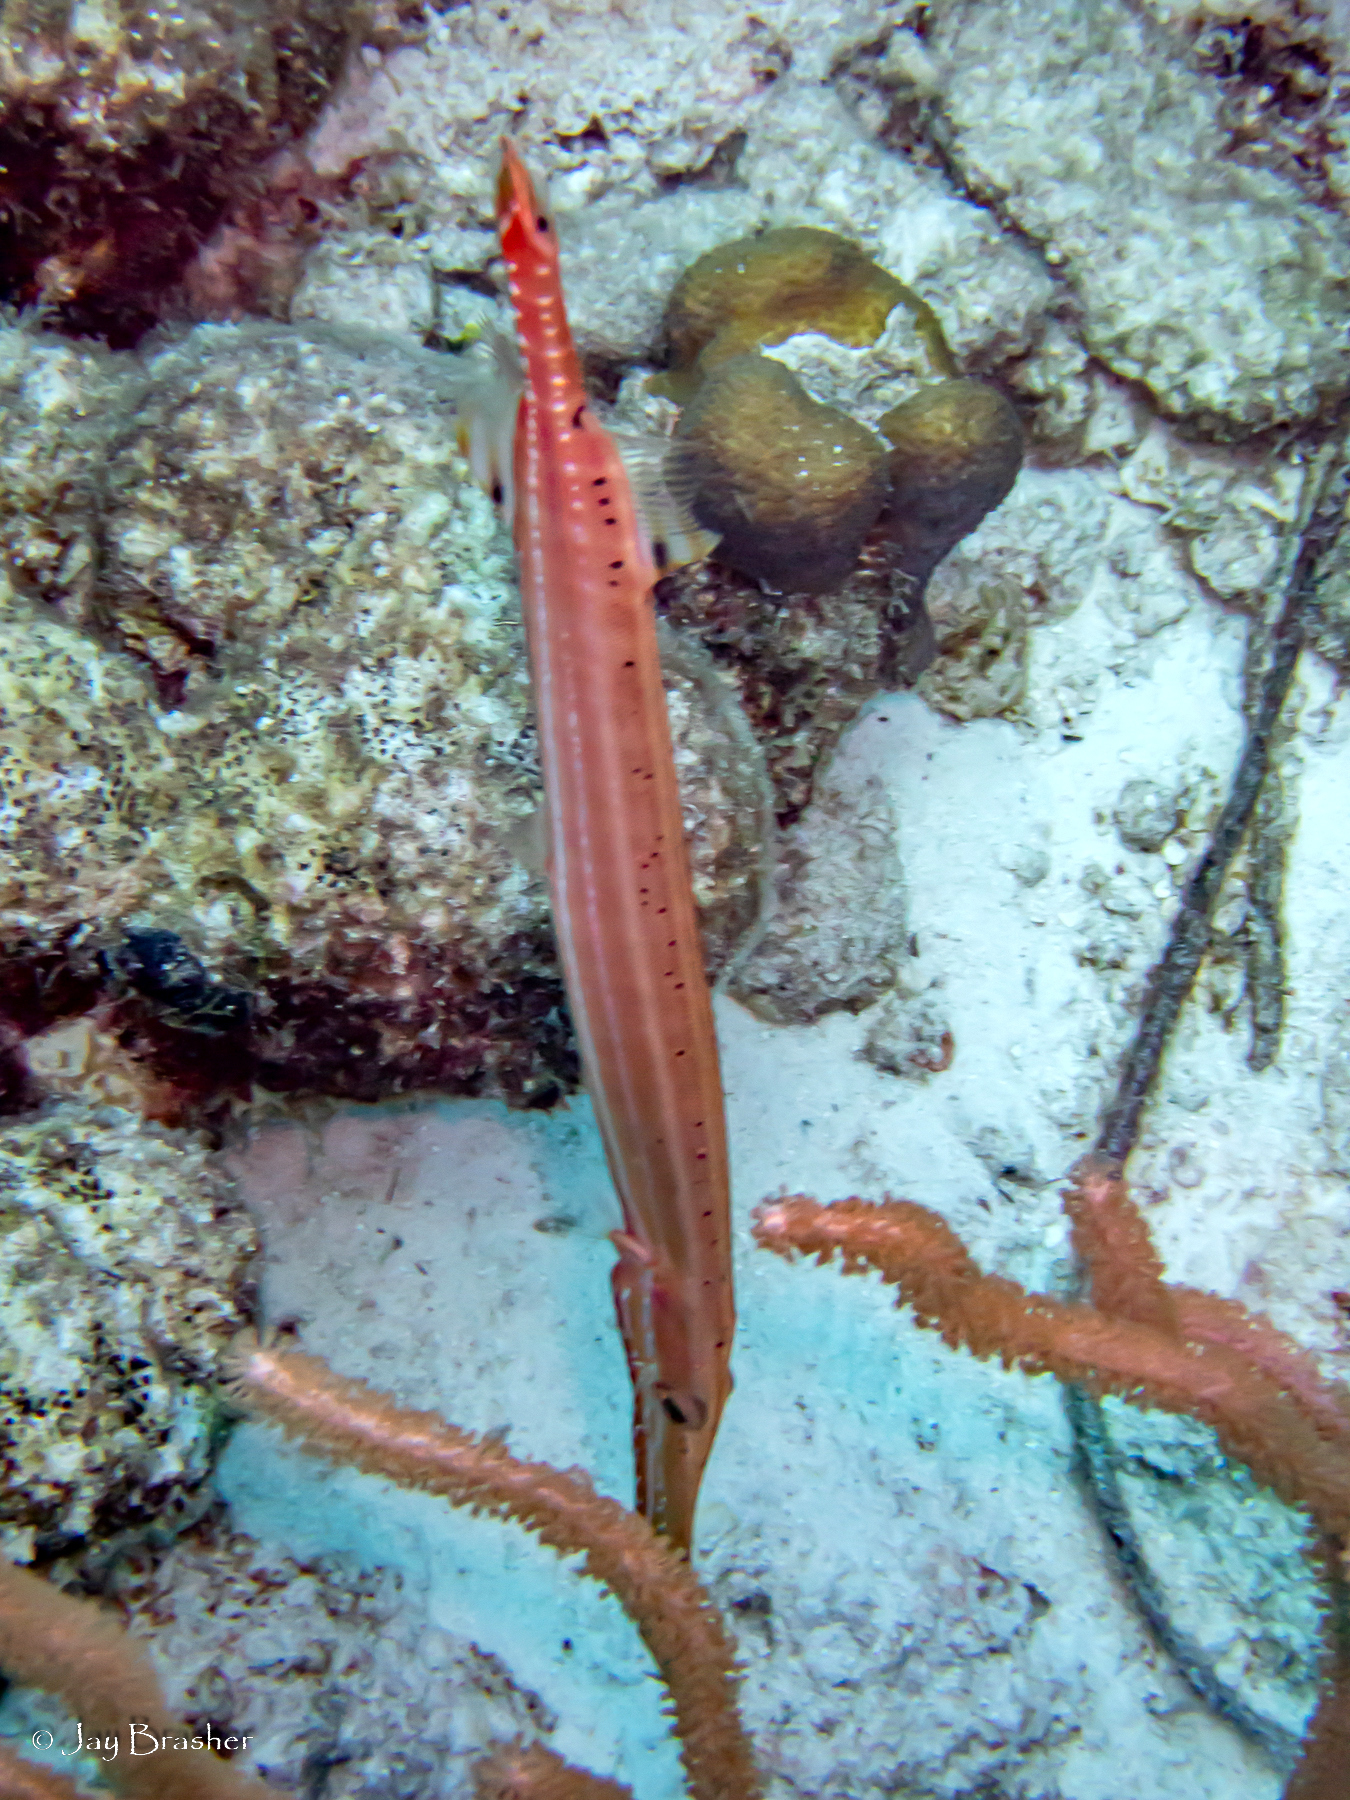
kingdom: Animalia
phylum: Chordata
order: Syngnathiformes
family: Aulostomidae
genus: Aulostomus
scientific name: Aulostomus maculatus
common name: West atlantic trumpetfish
